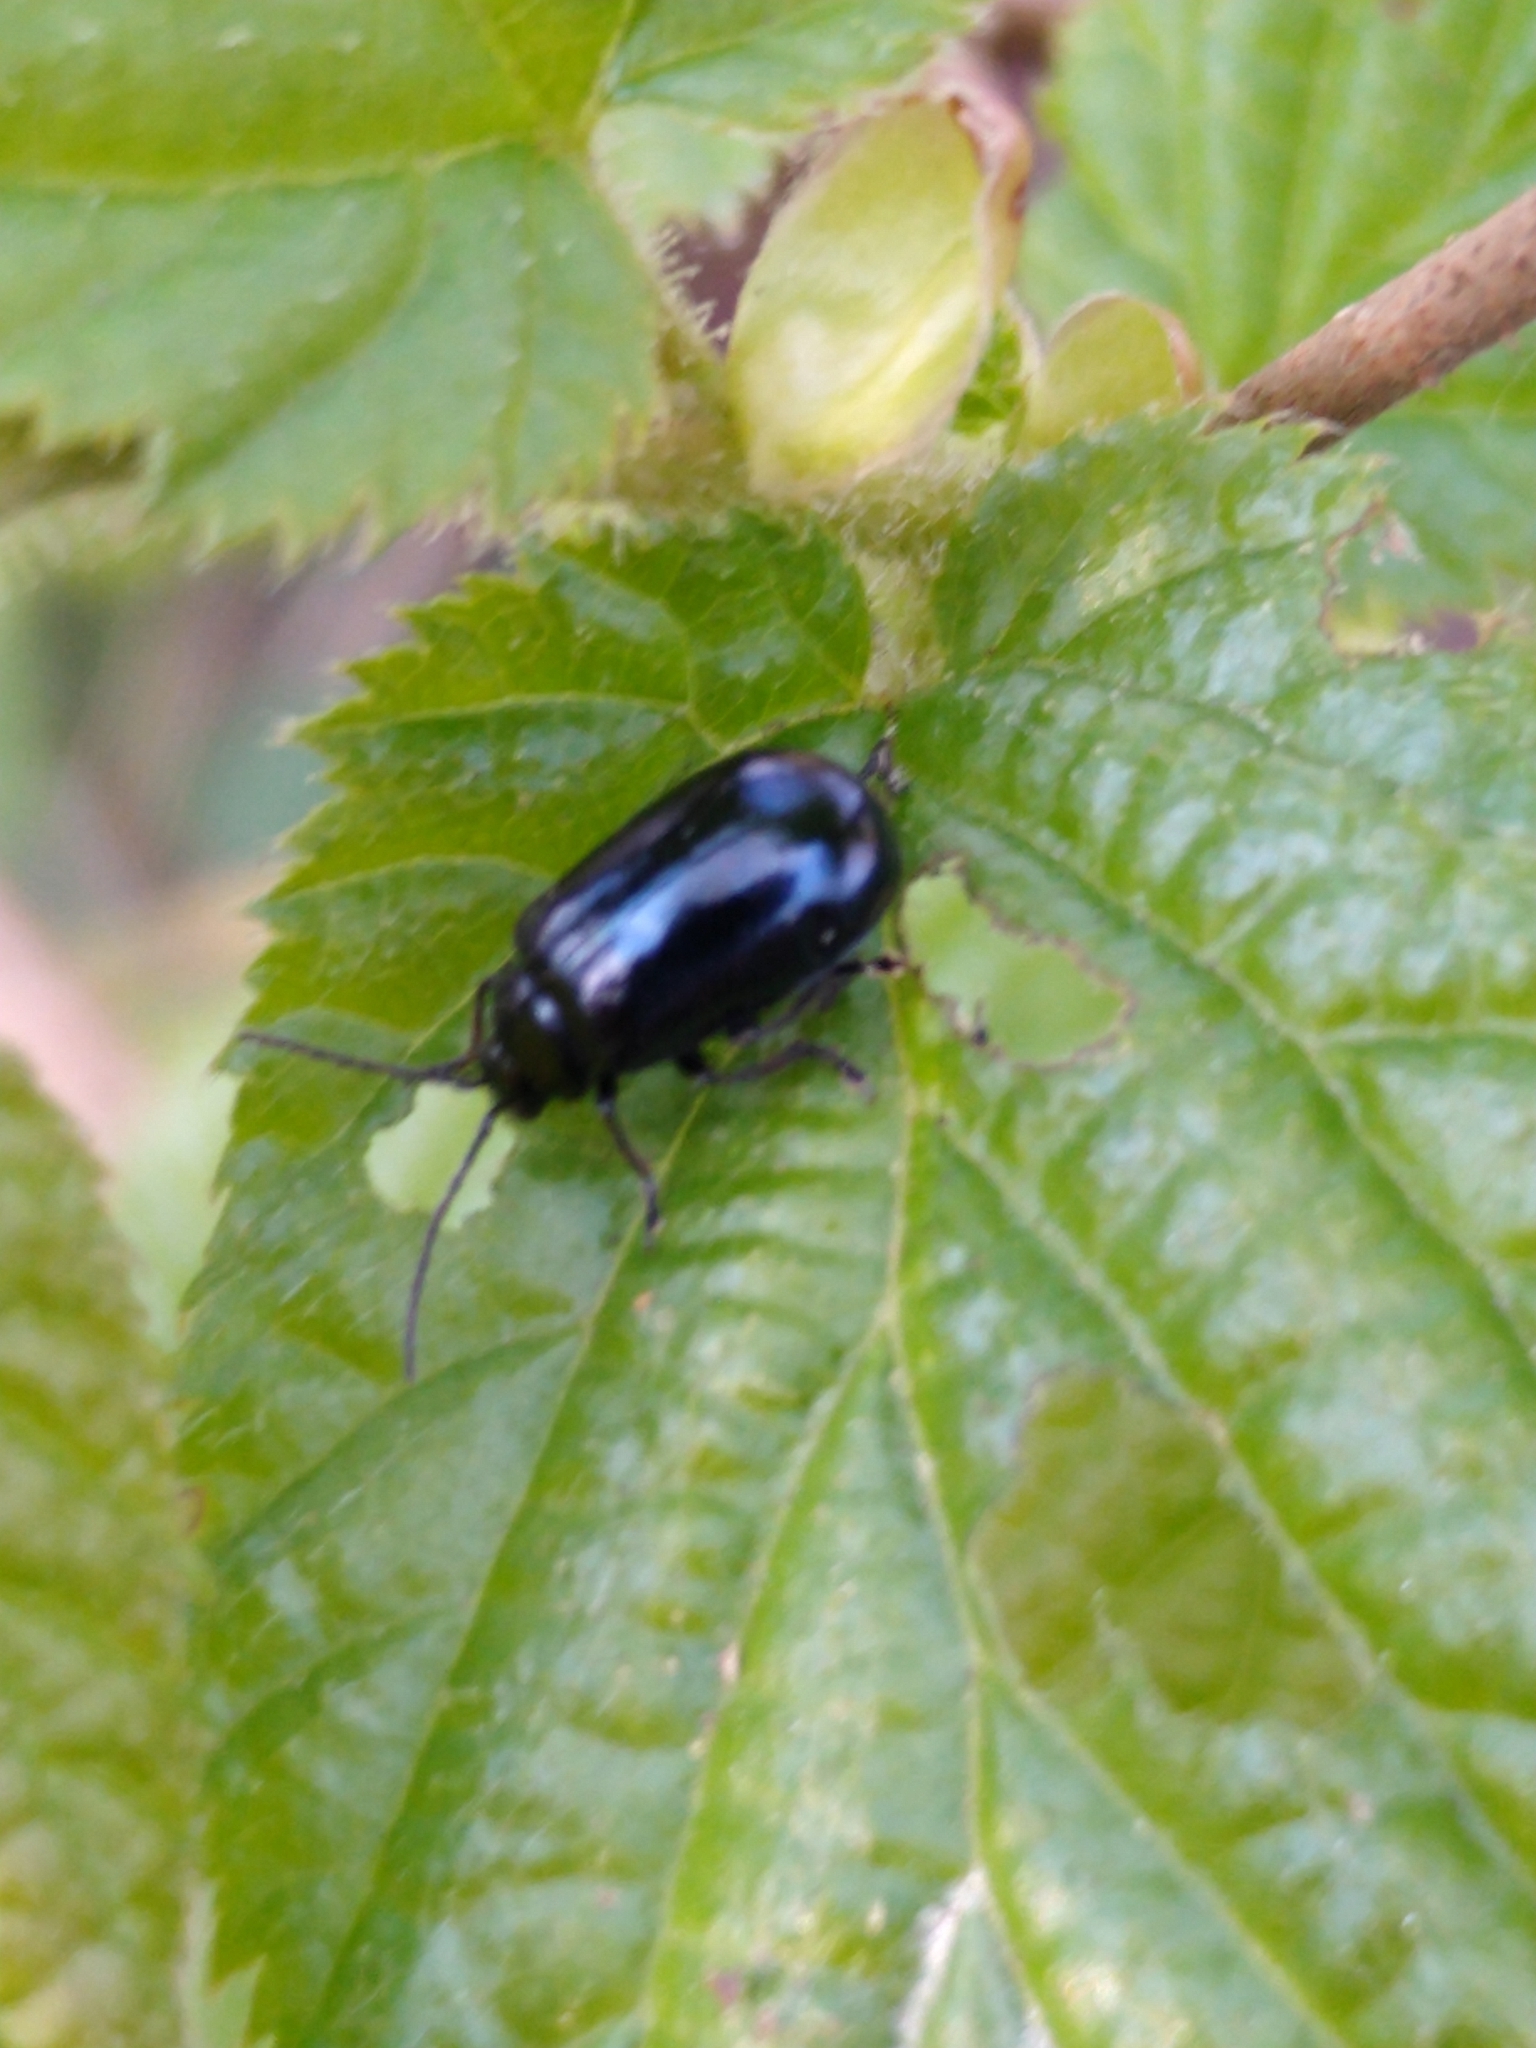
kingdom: Animalia
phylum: Arthropoda
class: Insecta
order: Coleoptera
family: Chrysomelidae
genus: Agelastica
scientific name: Agelastica alni
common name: Alder leaf beetle
